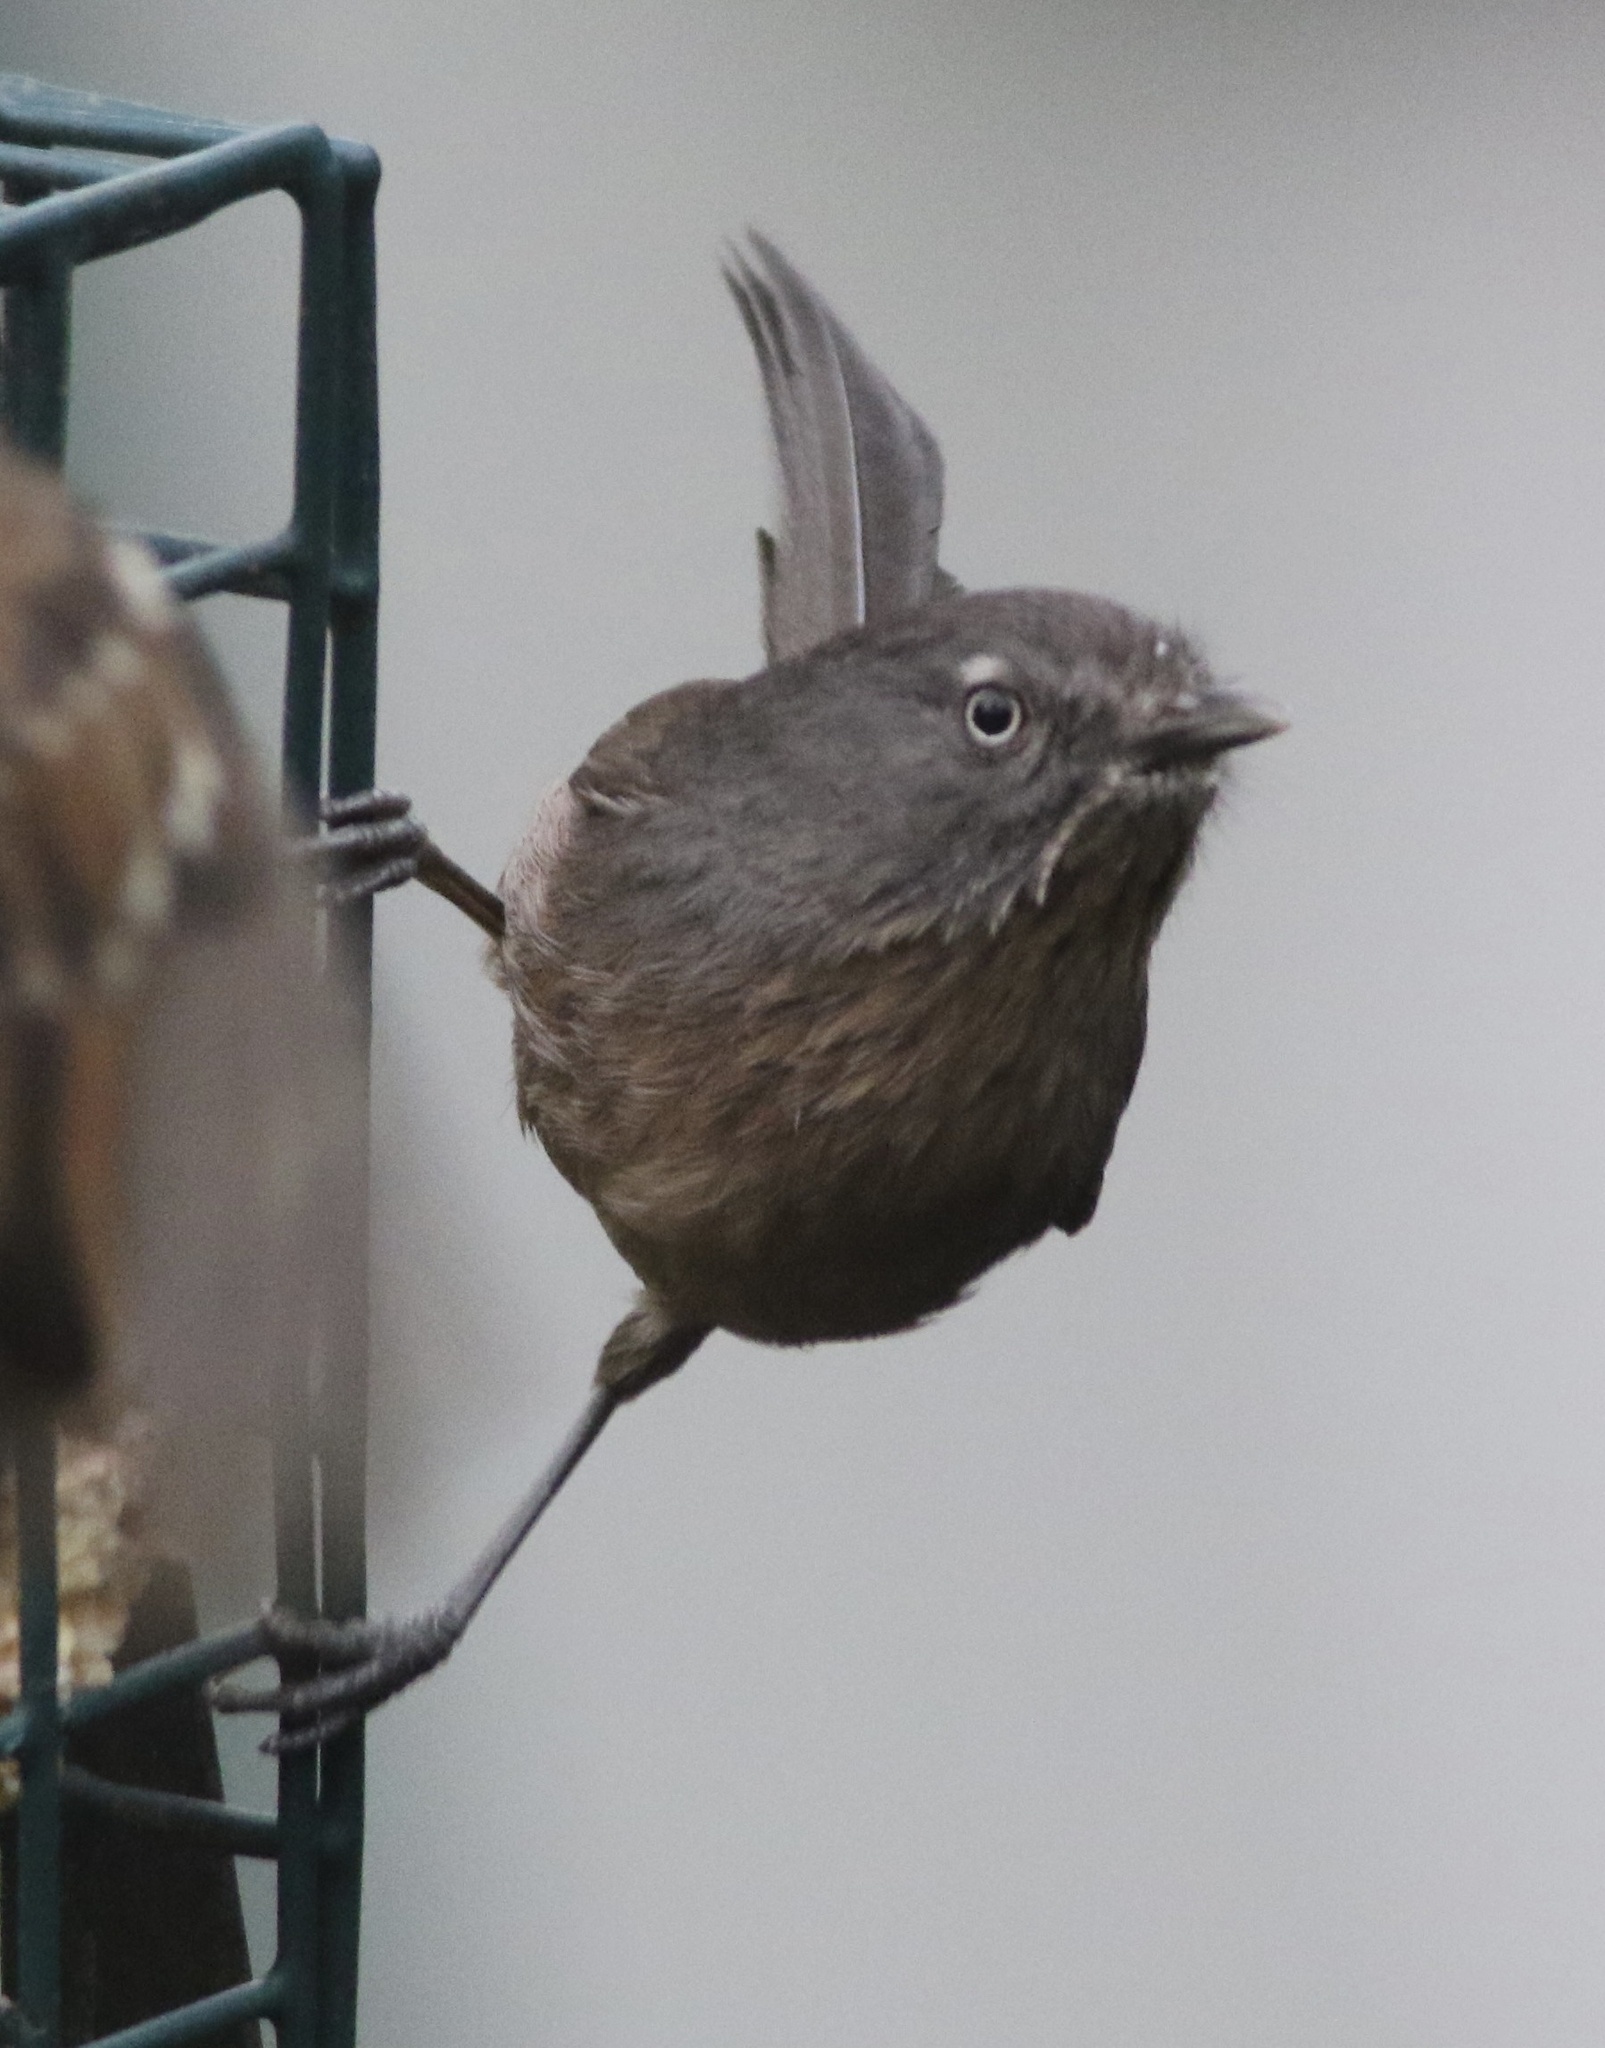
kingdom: Animalia
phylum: Chordata
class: Aves
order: Passeriformes
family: Sylviidae
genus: Chamaea
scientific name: Chamaea fasciata
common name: Wrentit
